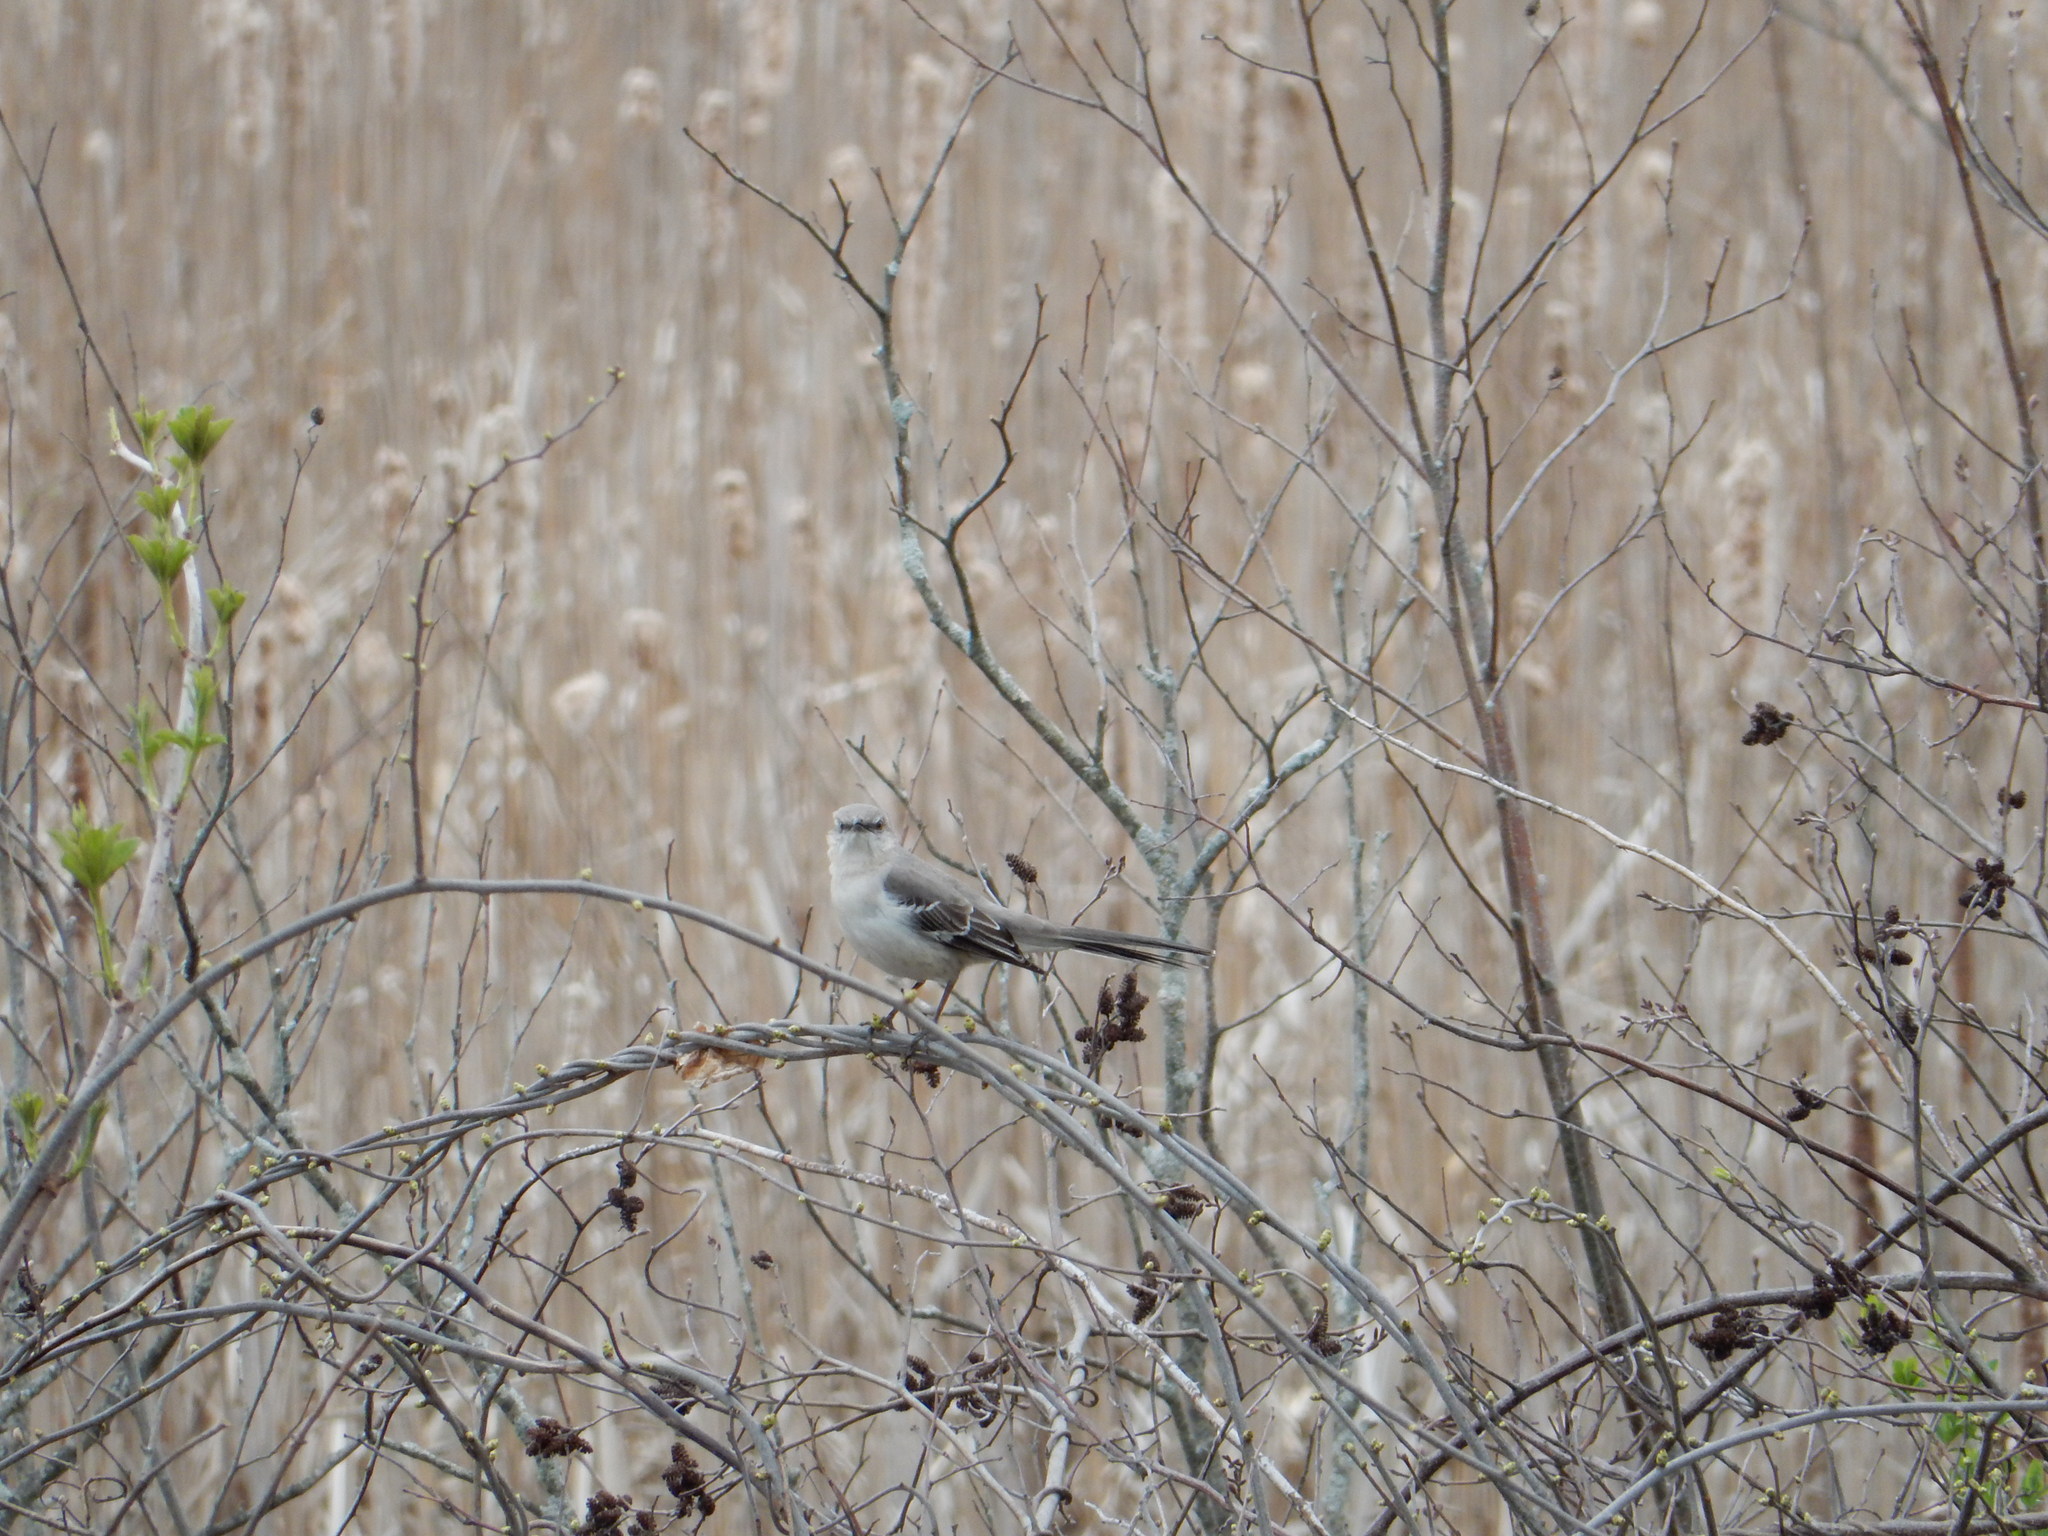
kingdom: Animalia
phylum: Chordata
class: Aves
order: Passeriformes
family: Mimidae
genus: Mimus
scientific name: Mimus polyglottos
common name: Northern mockingbird
